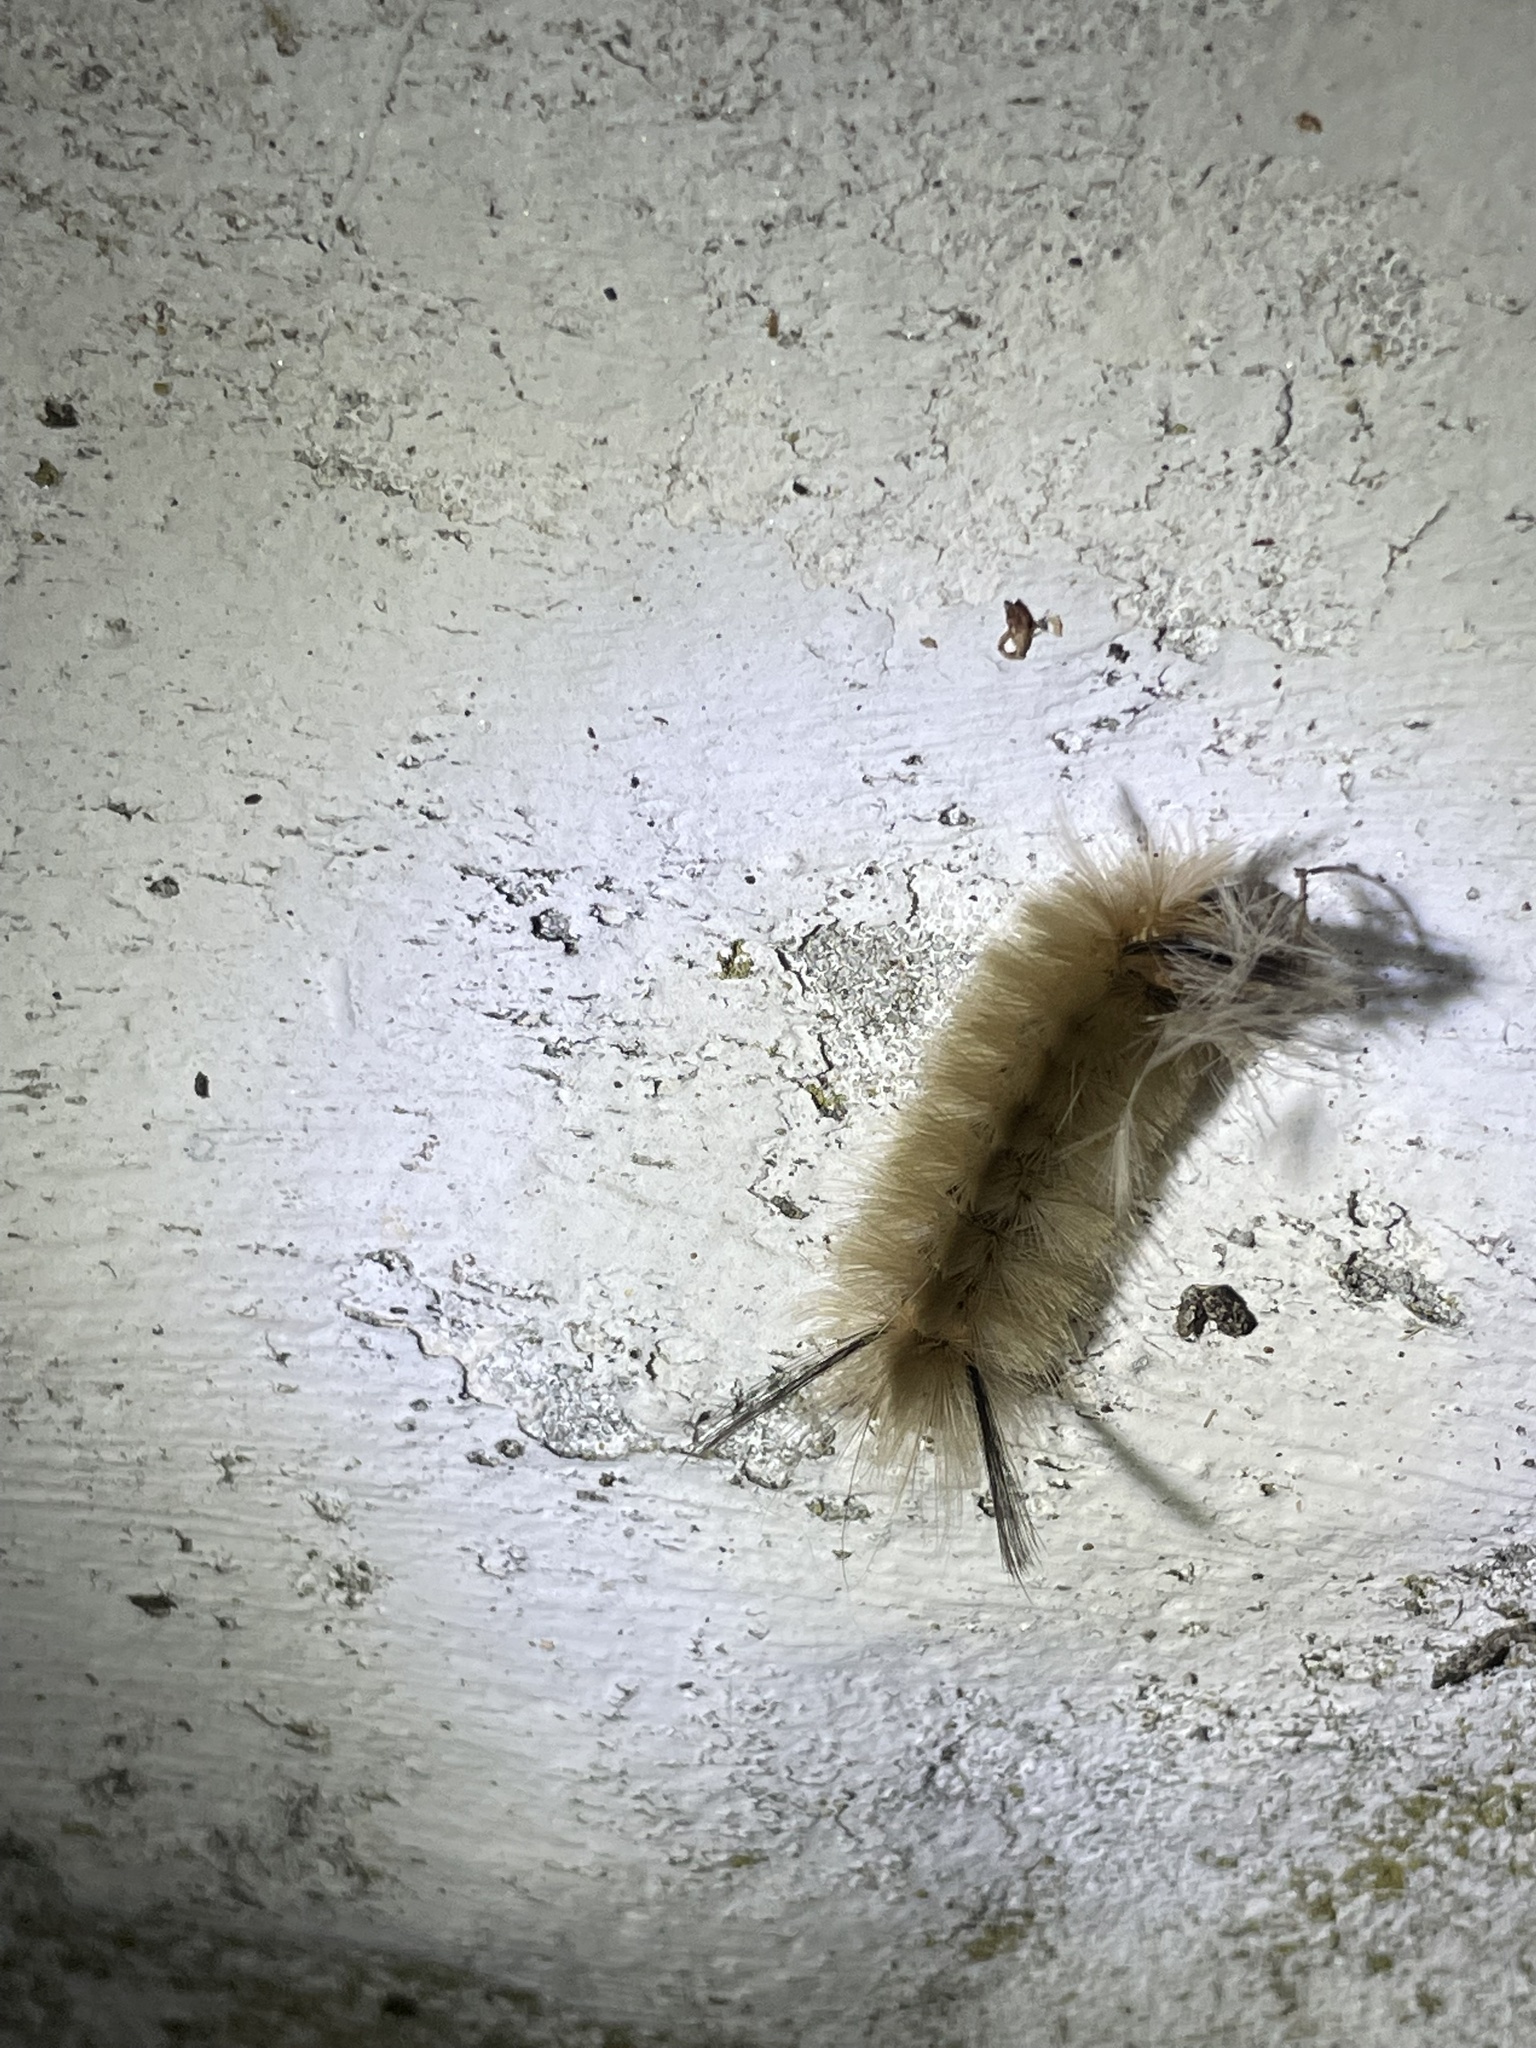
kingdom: Animalia
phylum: Arthropoda
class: Insecta
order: Lepidoptera
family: Erebidae
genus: Halysidota
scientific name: Halysidota tessellaris
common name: Banded tussock moth
